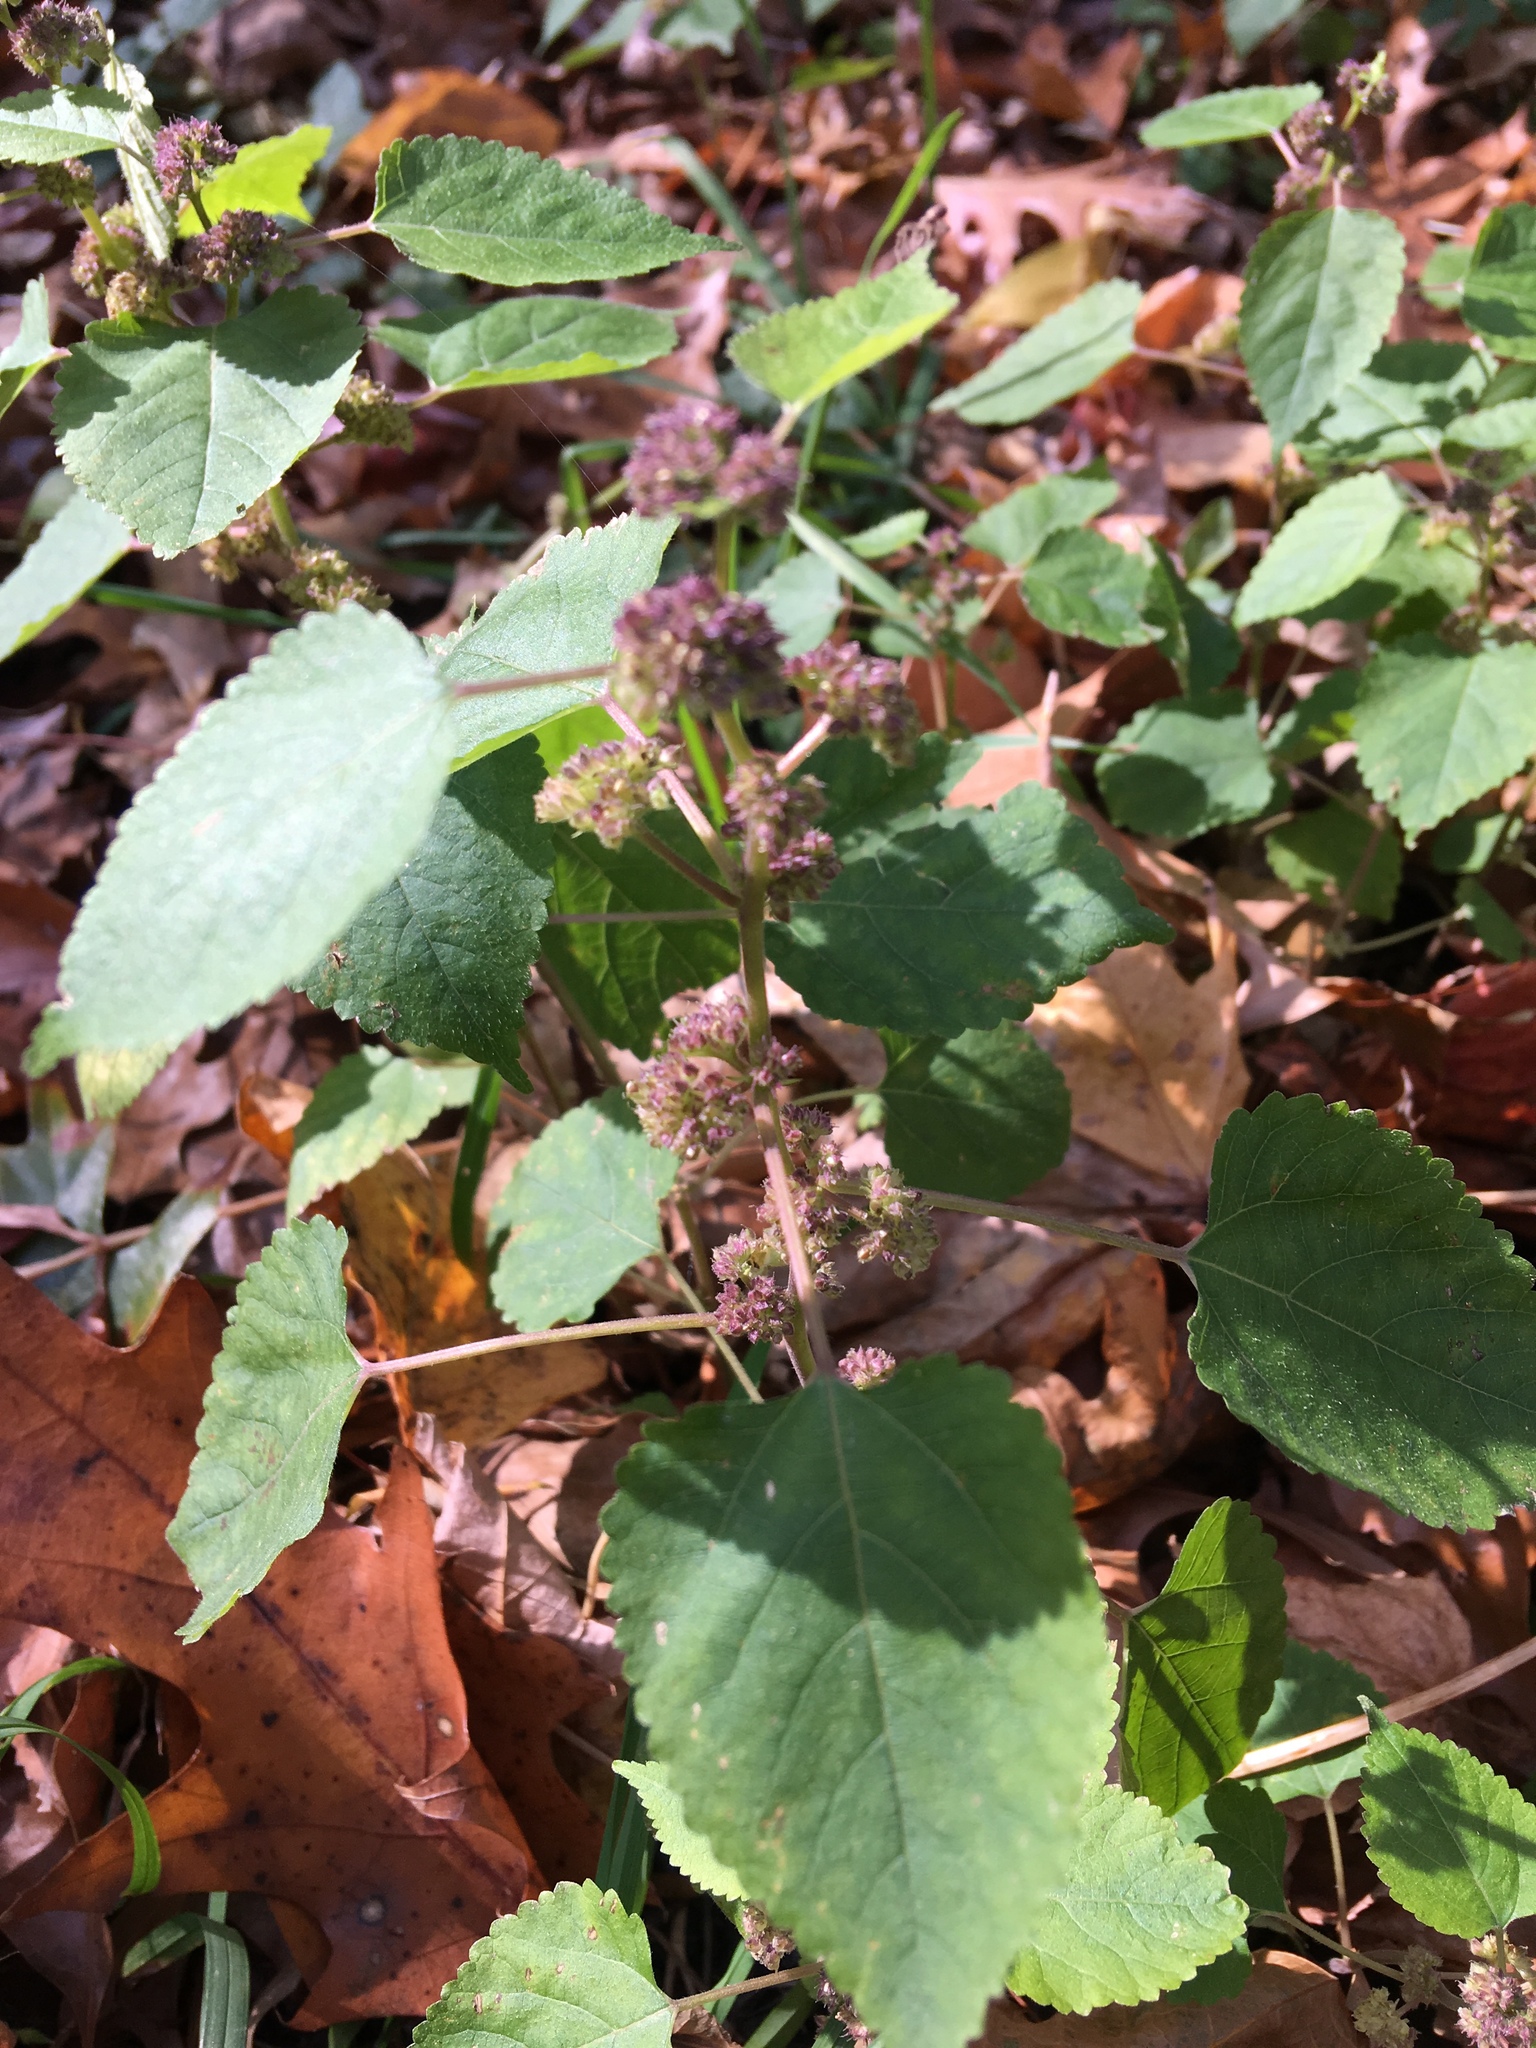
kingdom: Plantae
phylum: Tracheophyta
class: Magnoliopsida
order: Rosales
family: Moraceae
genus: Fatoua
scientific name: Fatoua villosa
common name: Hairy crabweed
